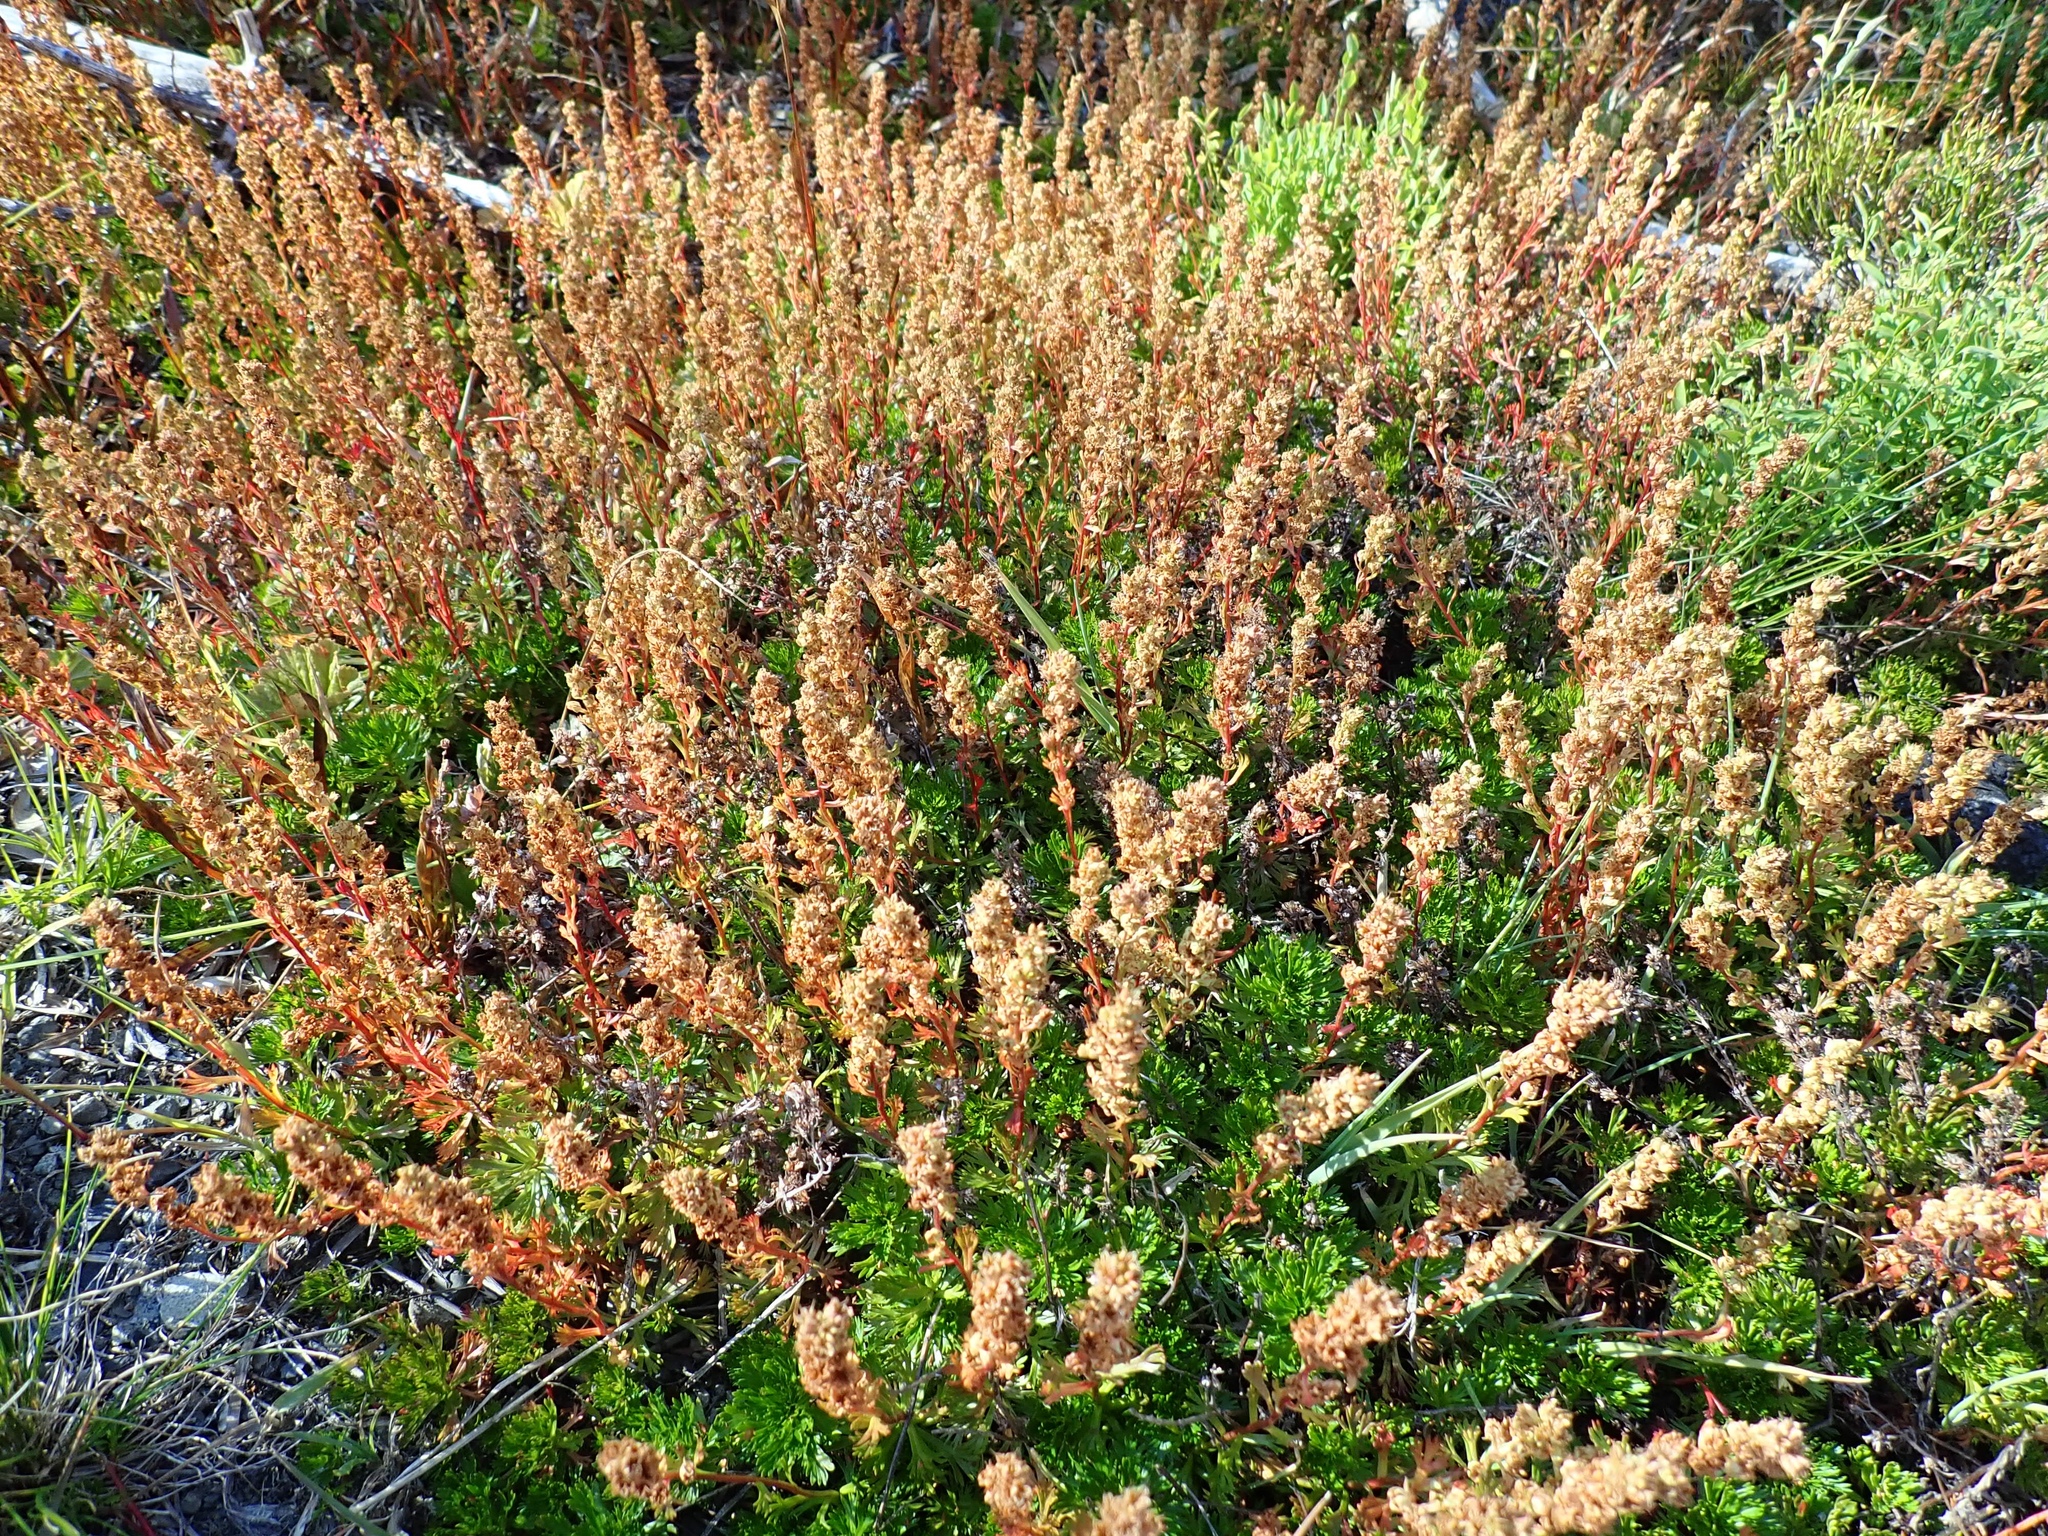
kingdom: Plantae
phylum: Tracheophyta
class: Magnoliopsida
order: Rosales
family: Rosaceae
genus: Luetkea
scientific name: Luetkea pectinata
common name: Partridgefoot
